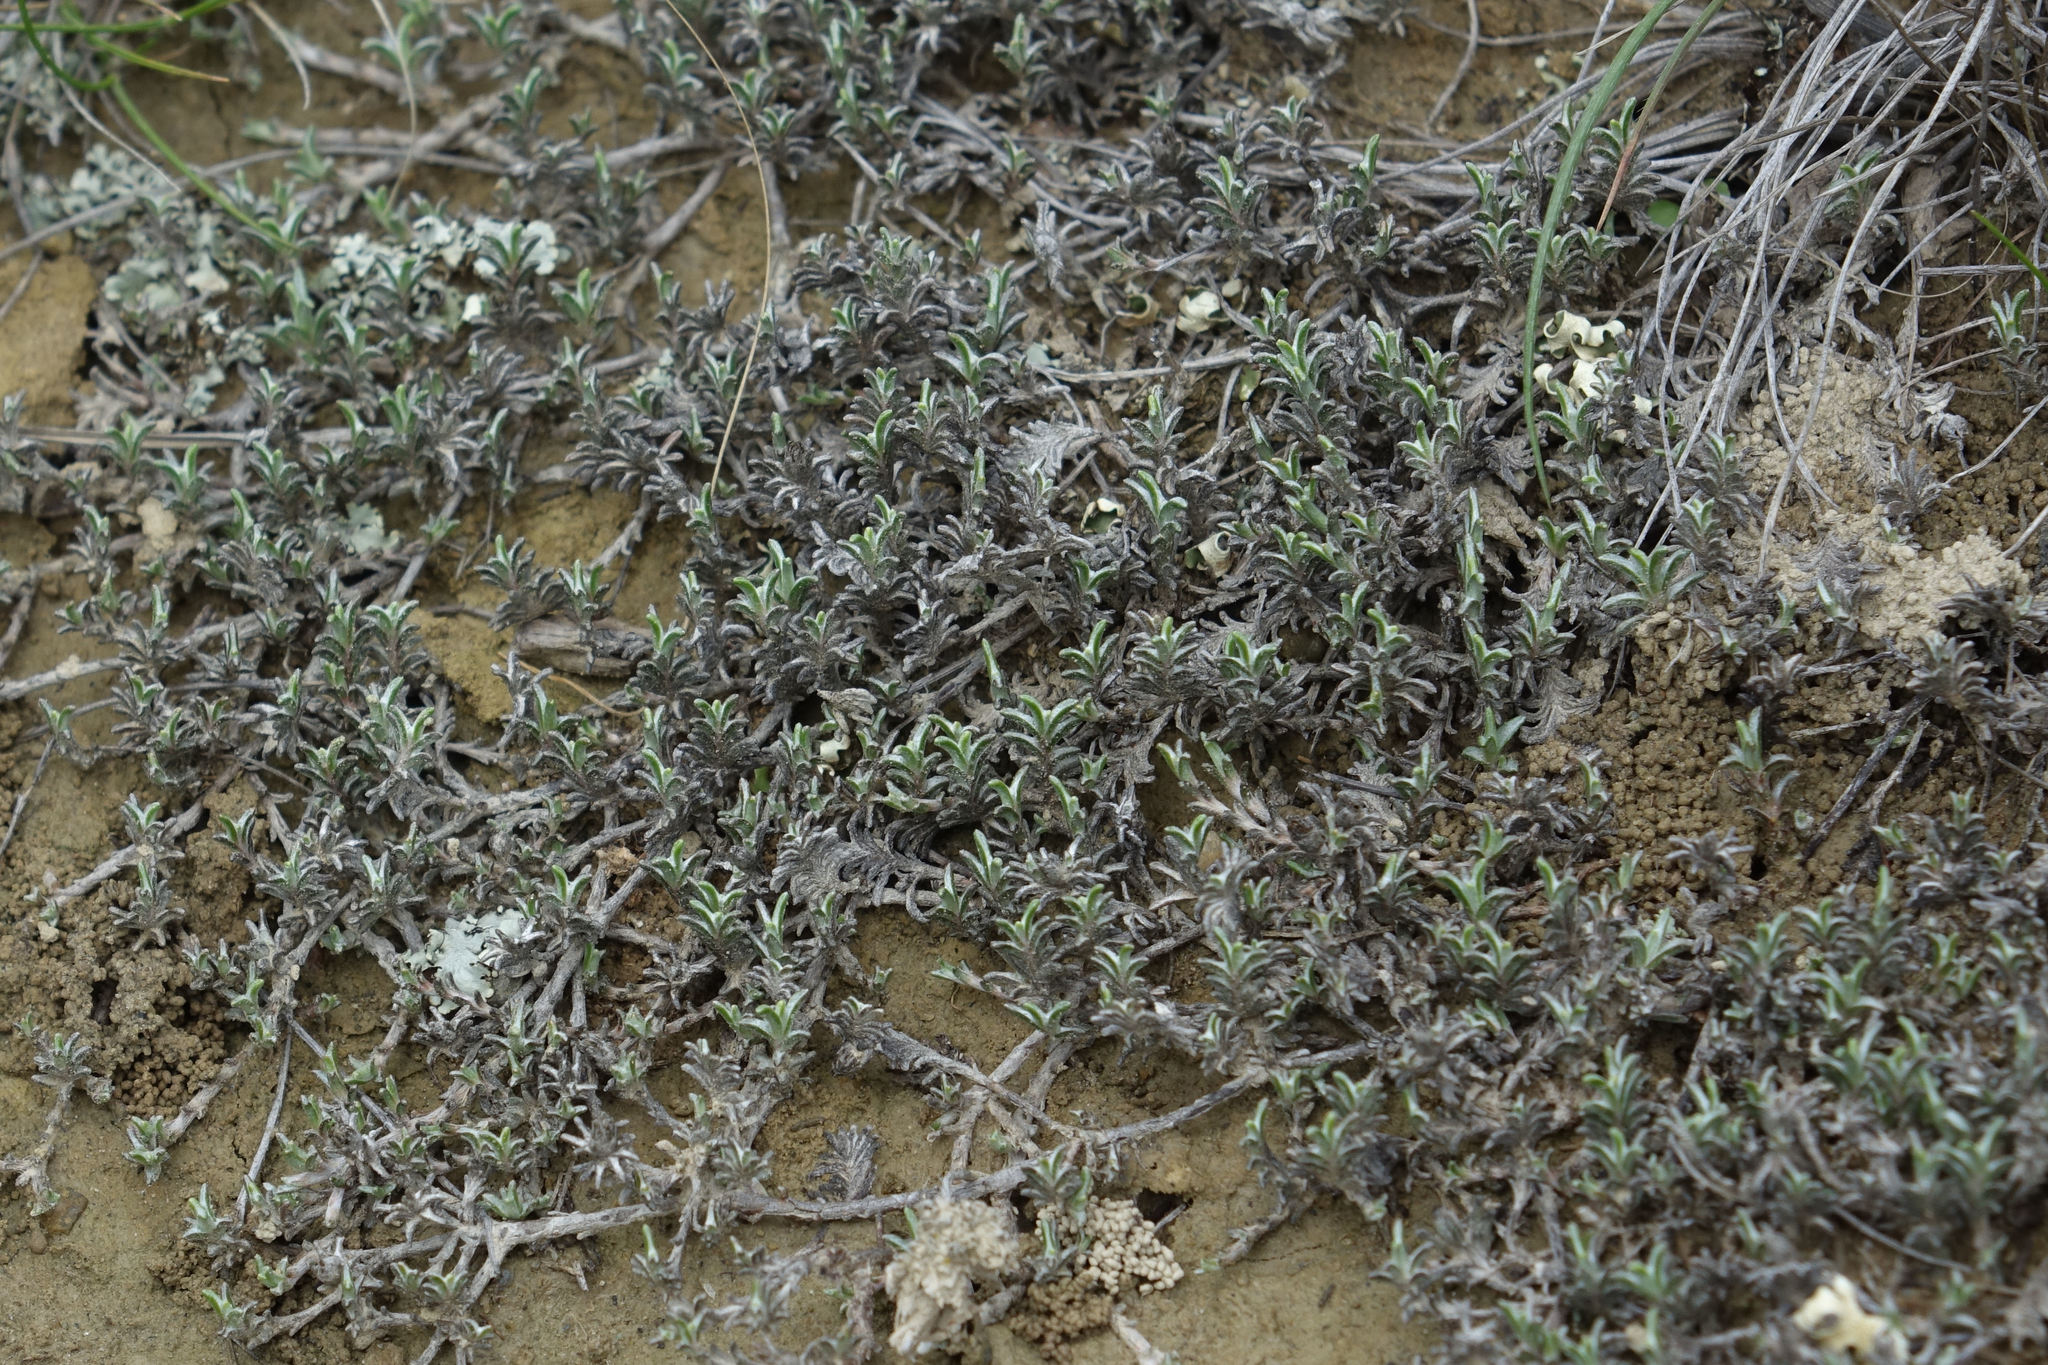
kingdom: Plantae
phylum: Tracheophyta
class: Magnoliopsida
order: Asterales
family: Asteraceae
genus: Raoulia
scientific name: Raoulia monroi
